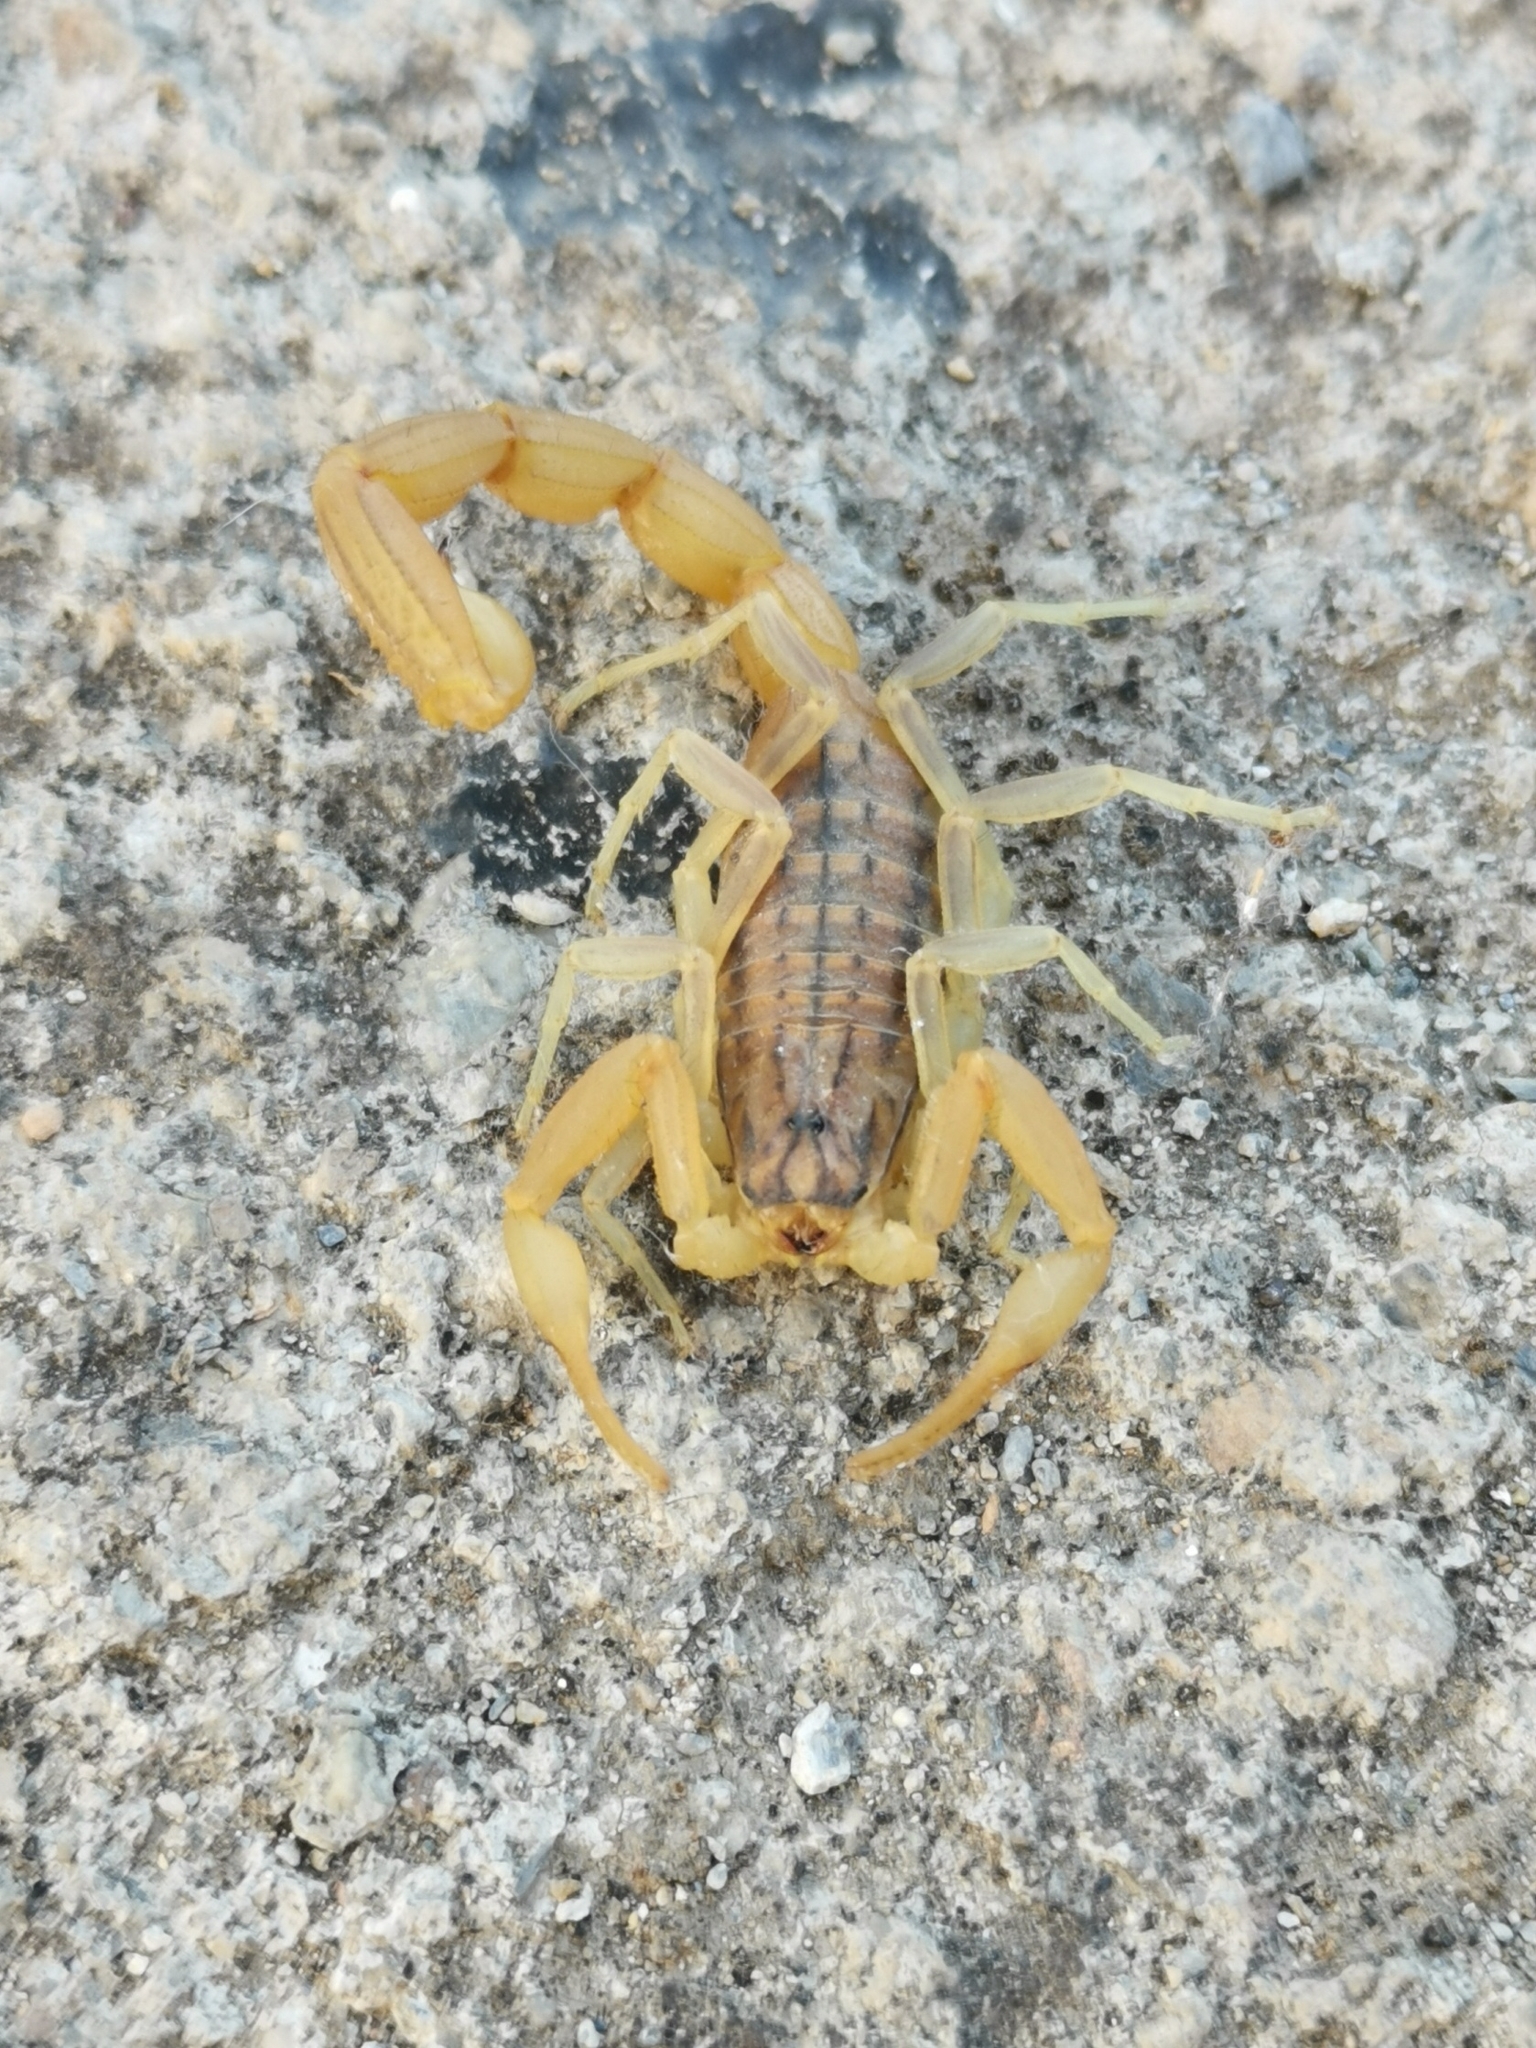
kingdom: Animalia
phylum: Arthropoda
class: Arachnida
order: Scorpiones
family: Buthidae
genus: Aegaeobuthus
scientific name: Aegaeobuthus gibbosus
